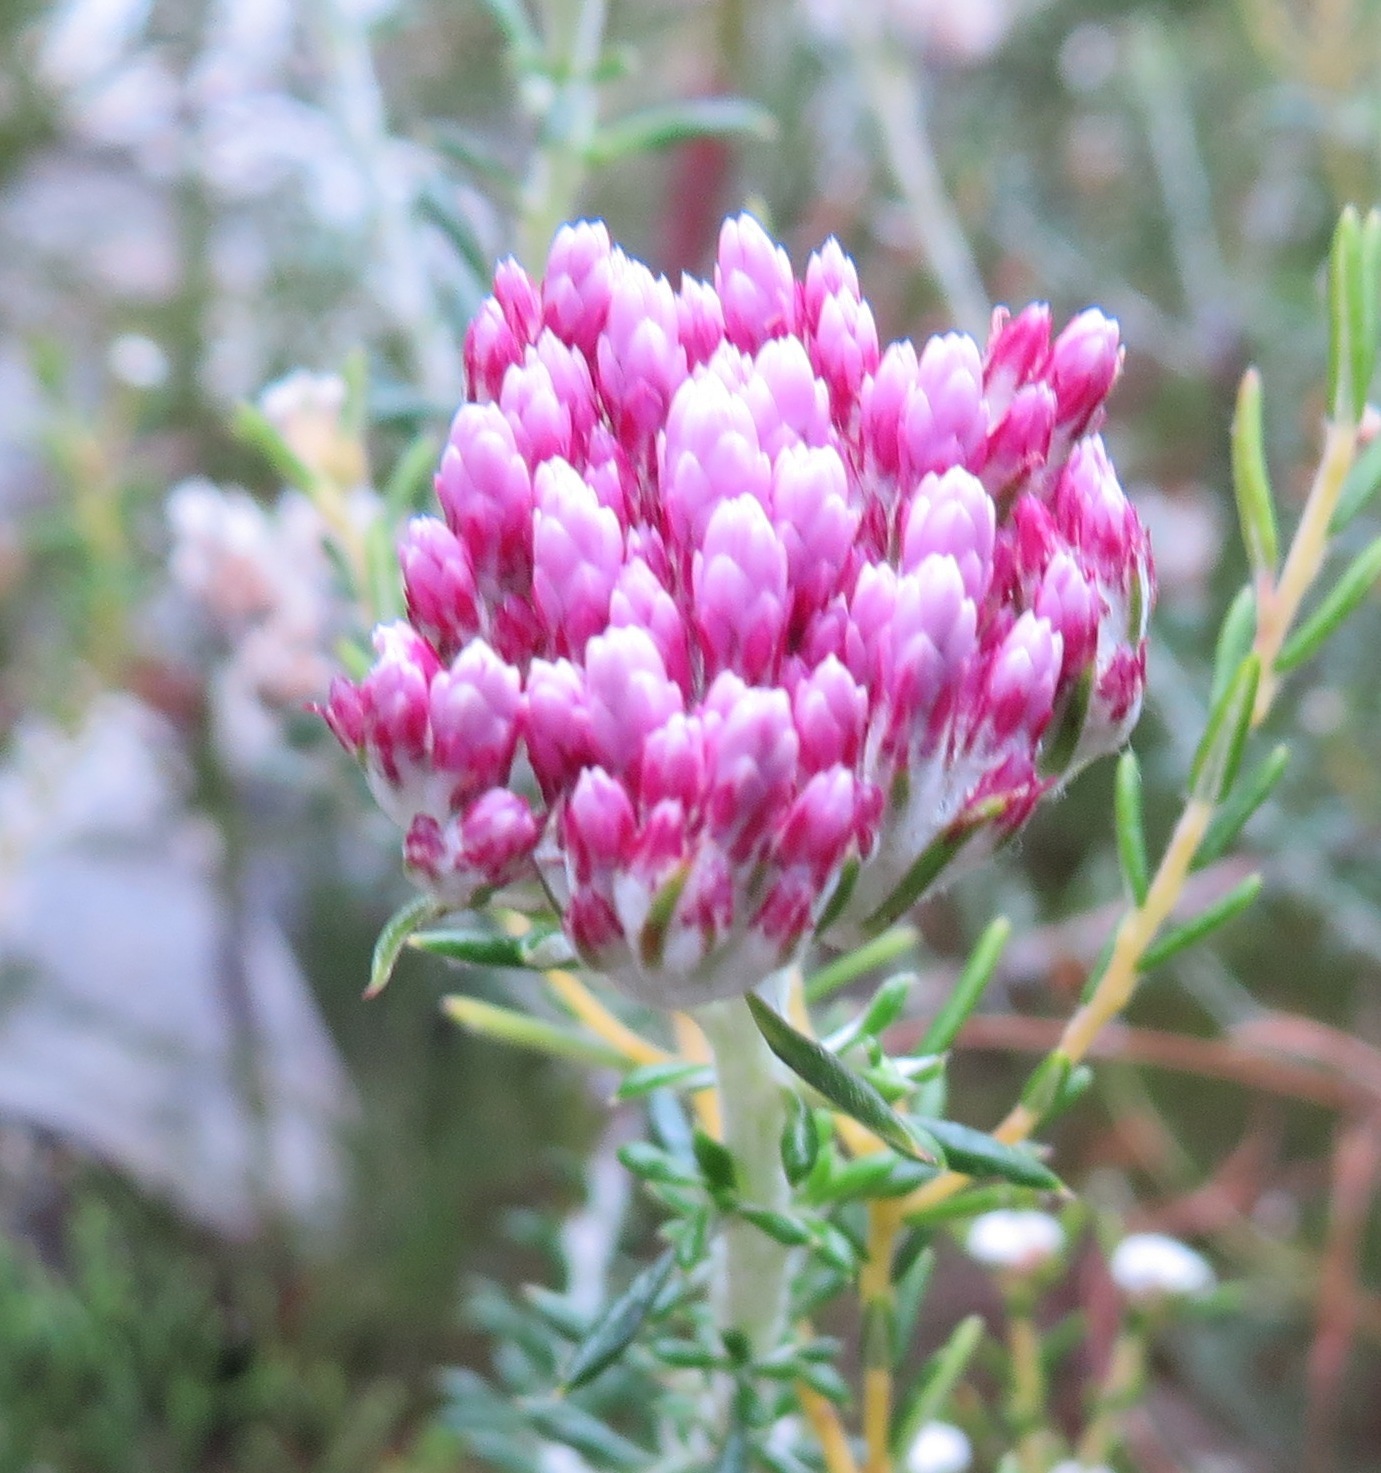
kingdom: Plantae
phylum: Tracheophyta
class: Magnoliopsida
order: Asterales
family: Asteraceae
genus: Metalasia
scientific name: Metalasia erubescens
